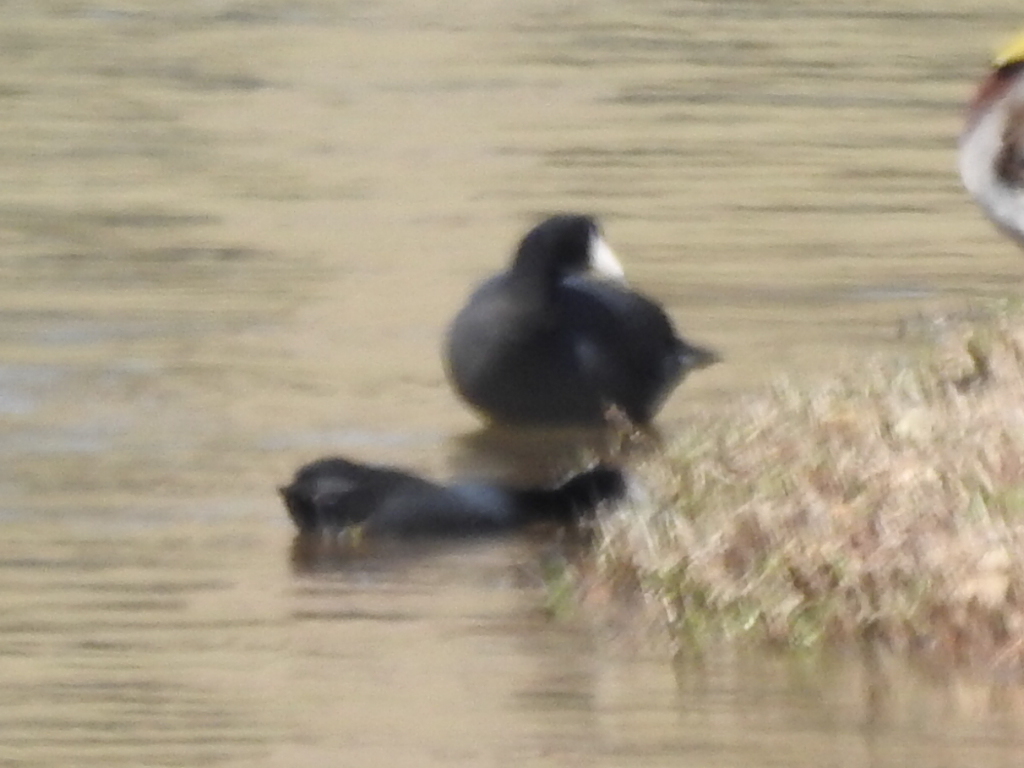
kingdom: Animalia
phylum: Chordata
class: Aves
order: Gruiformes
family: Rallidae
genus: Fulica
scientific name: Fulica americana
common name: American coot
